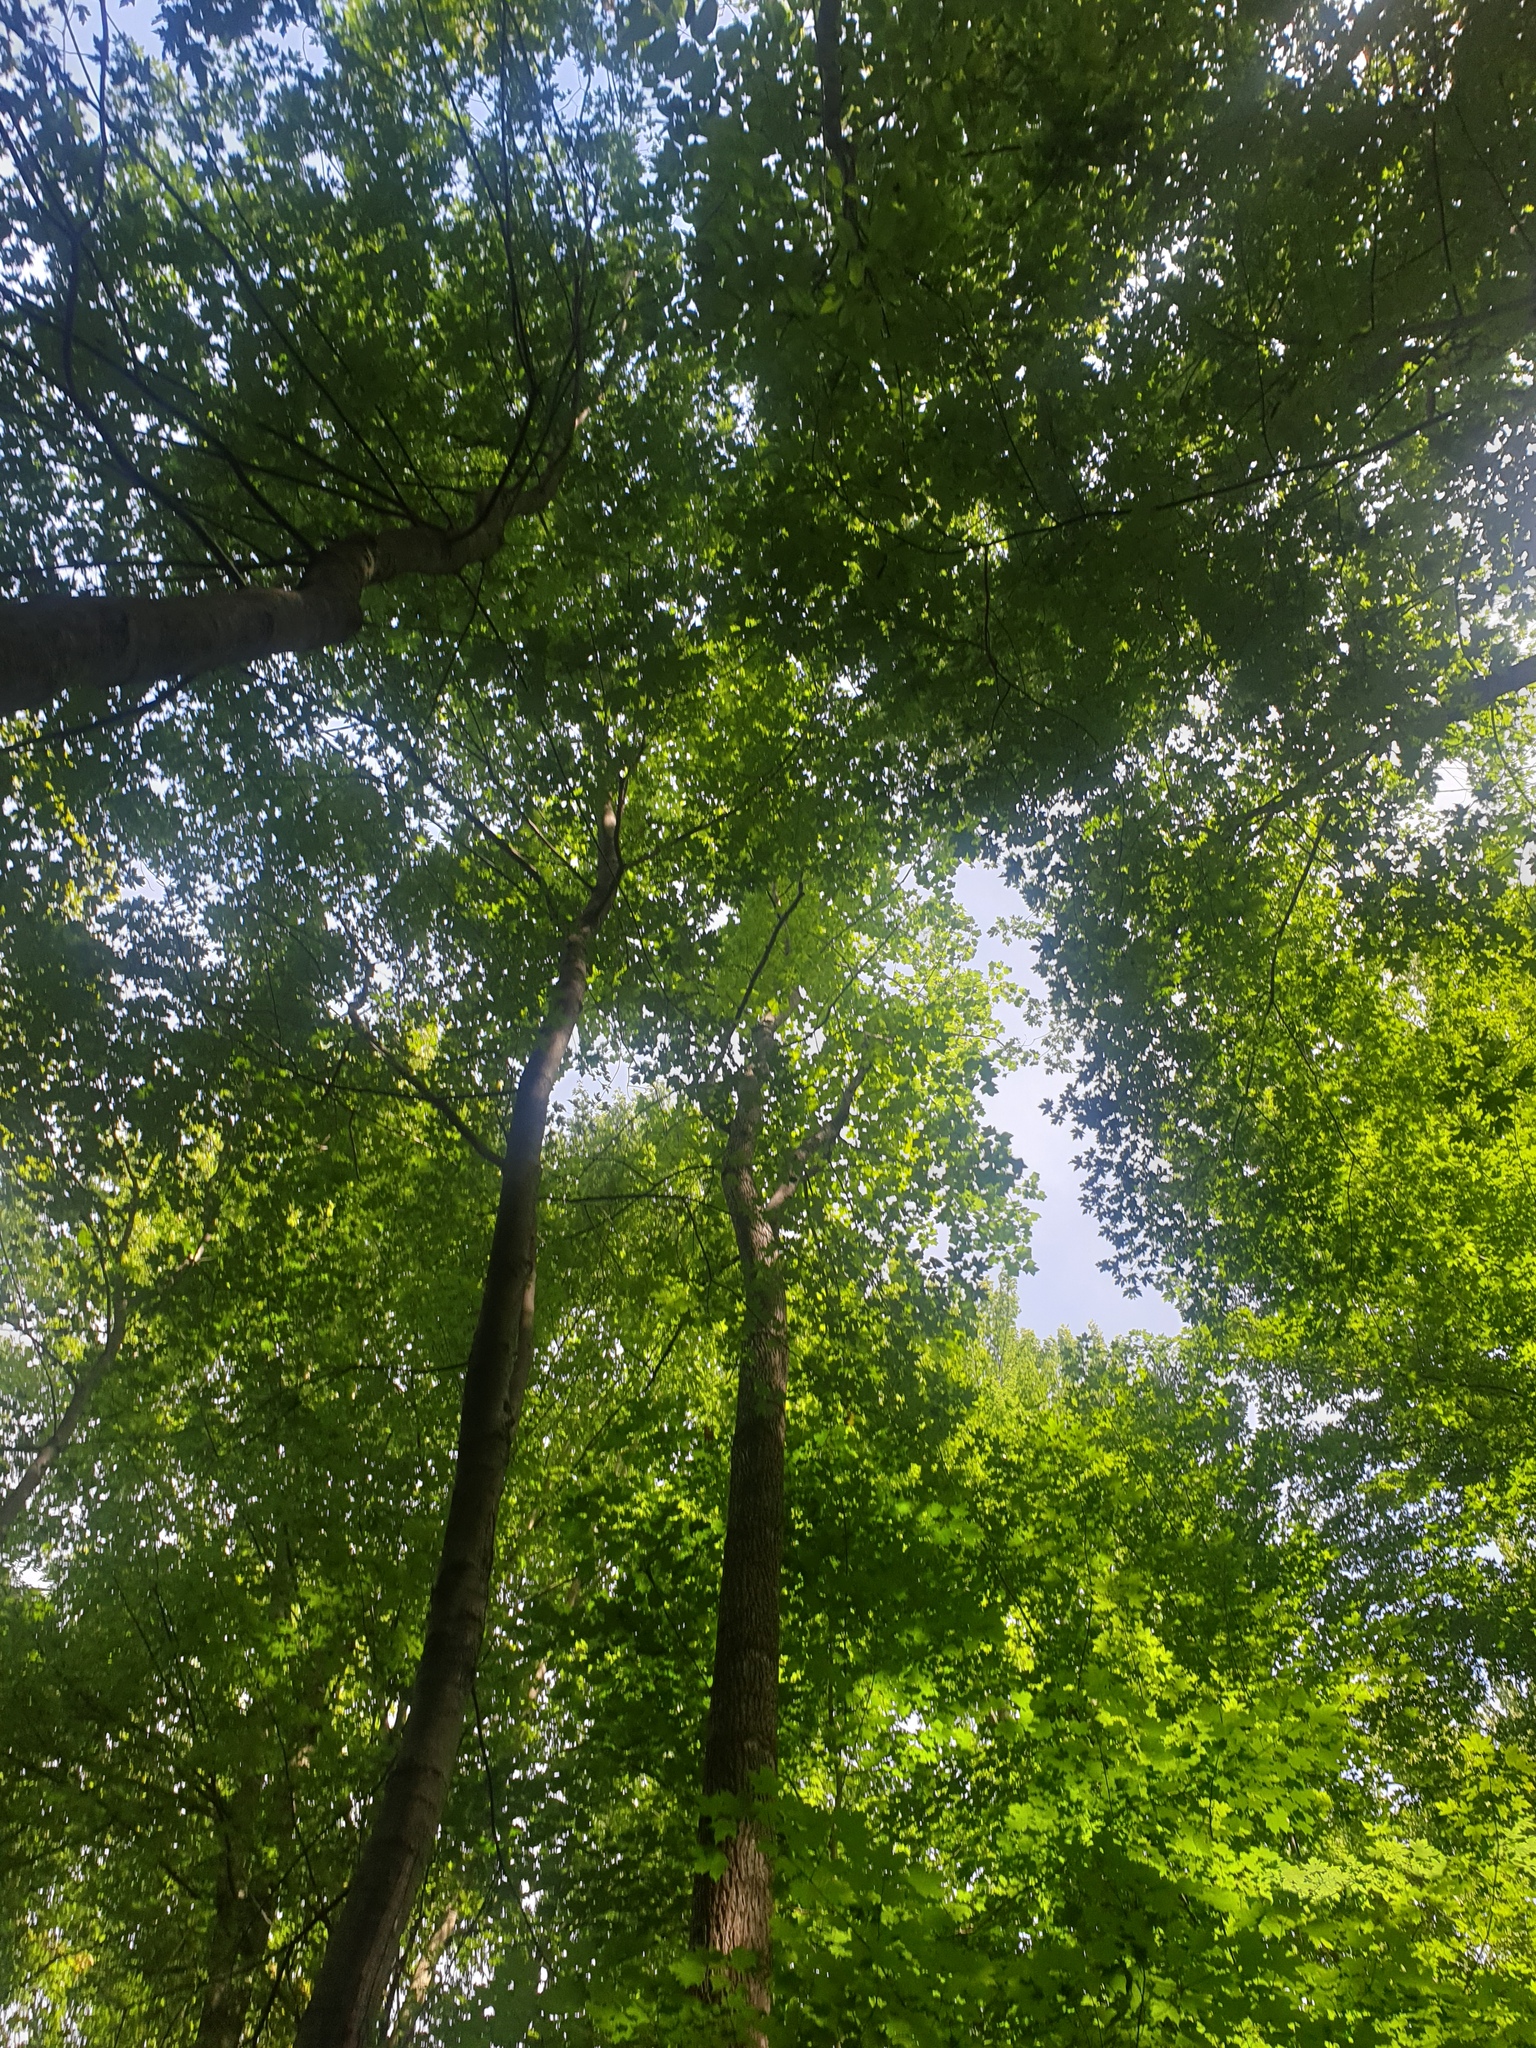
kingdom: Plantae
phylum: Tracheophyta
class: Liliopsida
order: Poales
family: Cyperaceae
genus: Carex
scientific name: Carex lupuliformis
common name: False hop sedge
